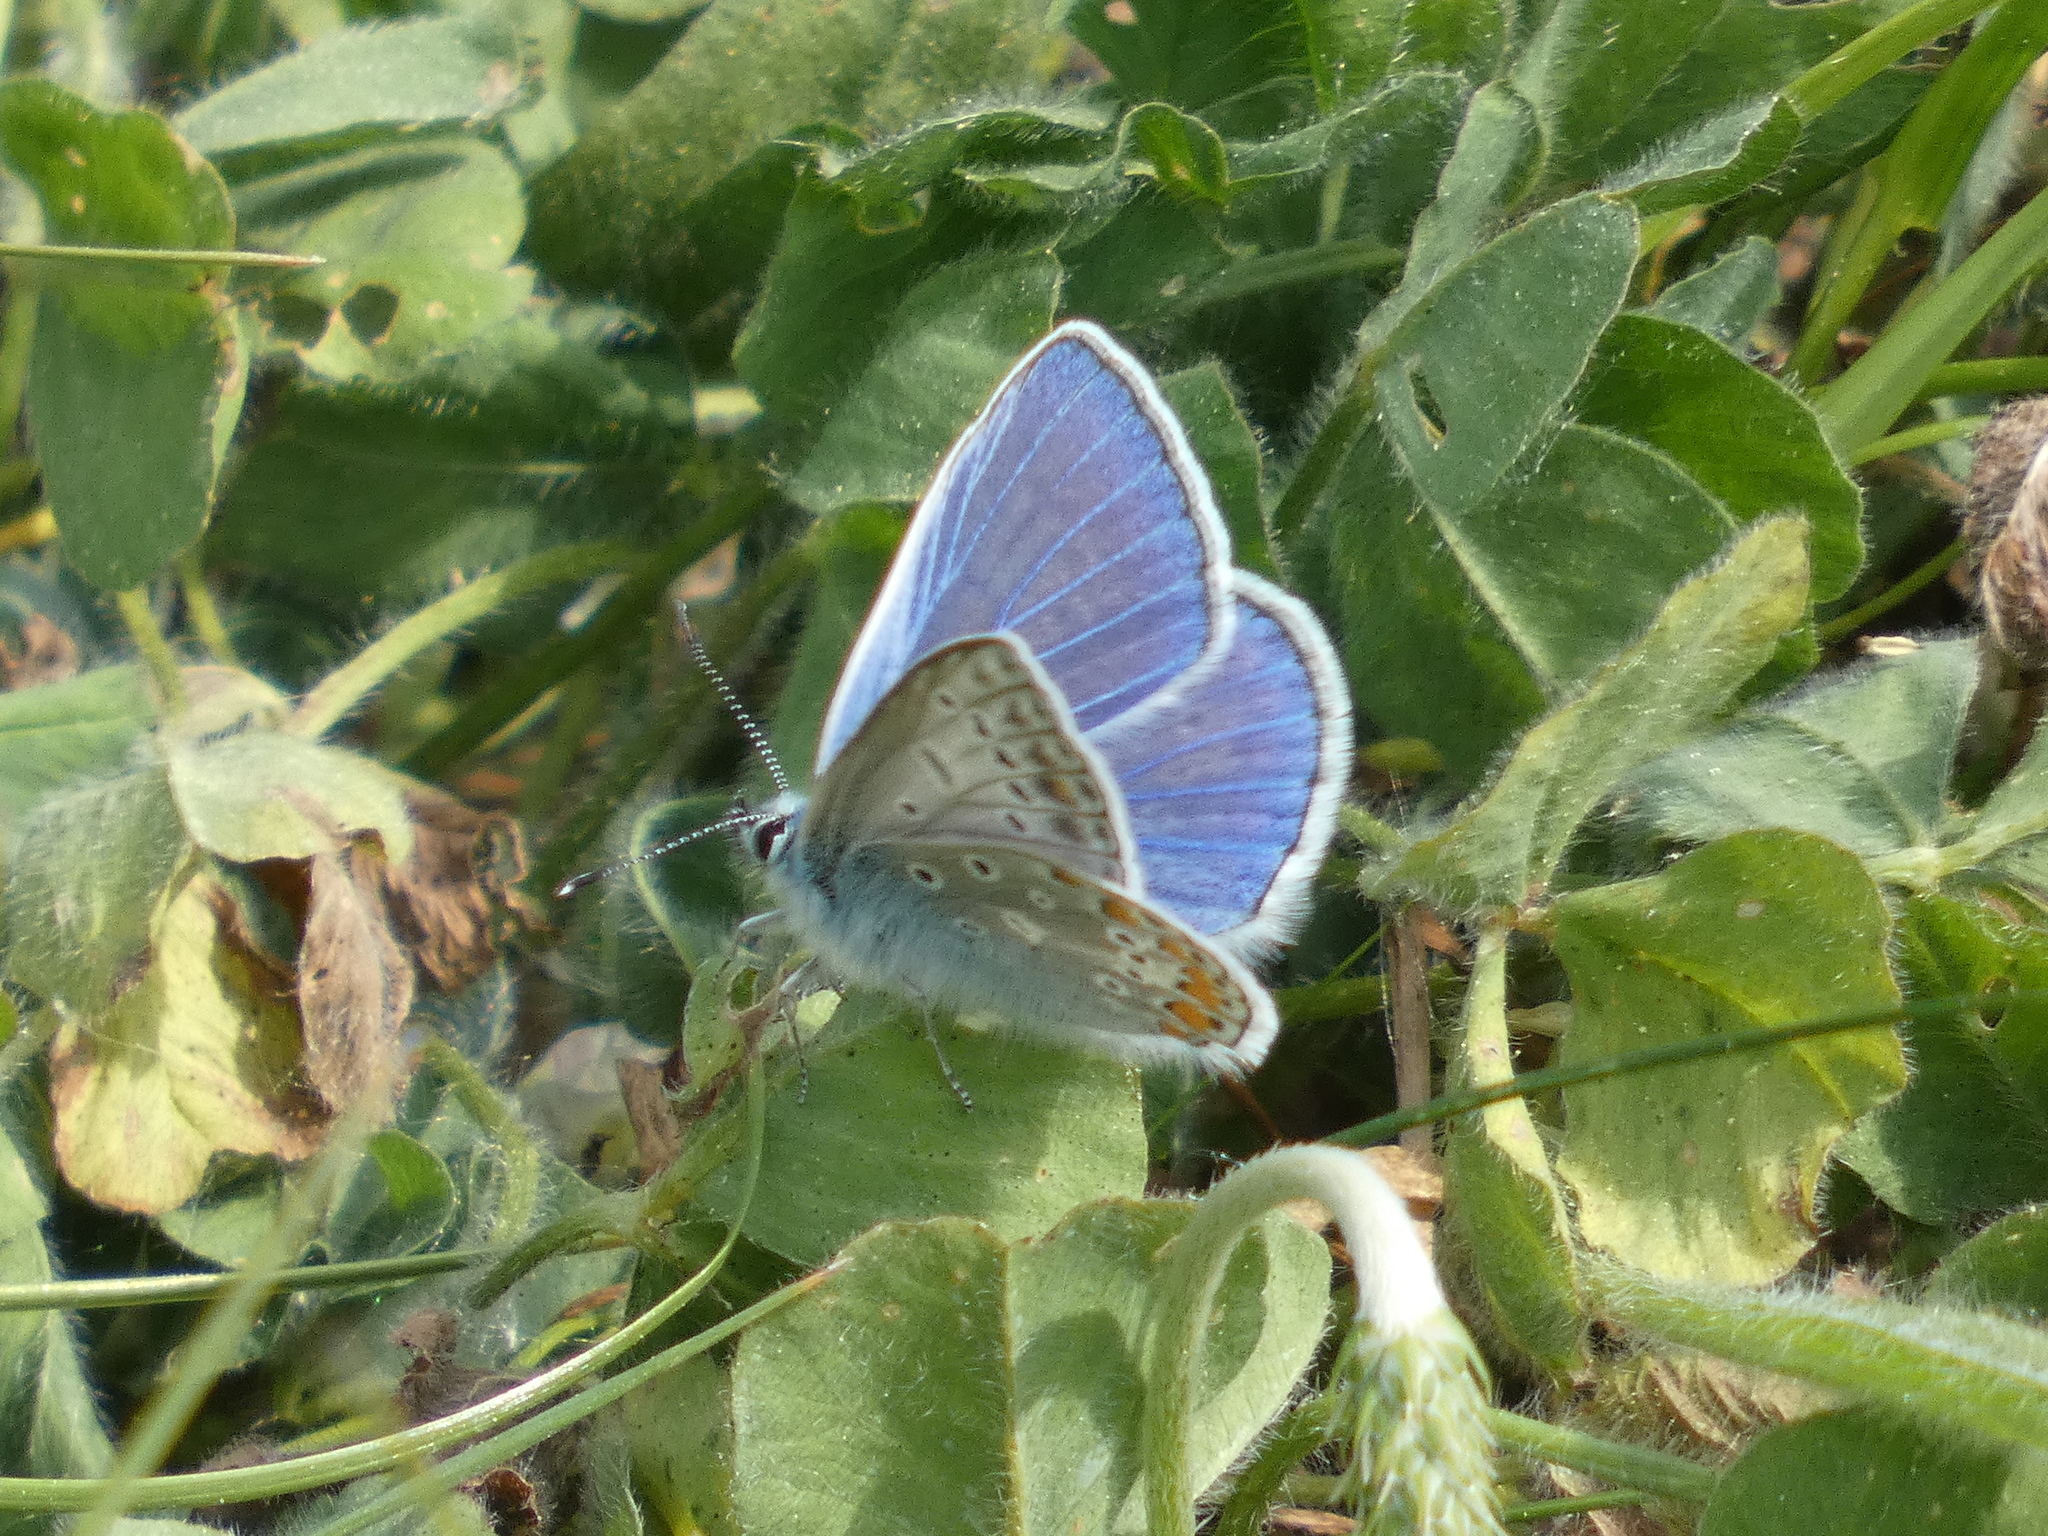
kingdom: Animalia
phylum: Arthropoda
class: Insecta
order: Lepidoptera
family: Lycaenidae
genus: Polyommatus
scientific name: Polyommatus icarus
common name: Common blue
